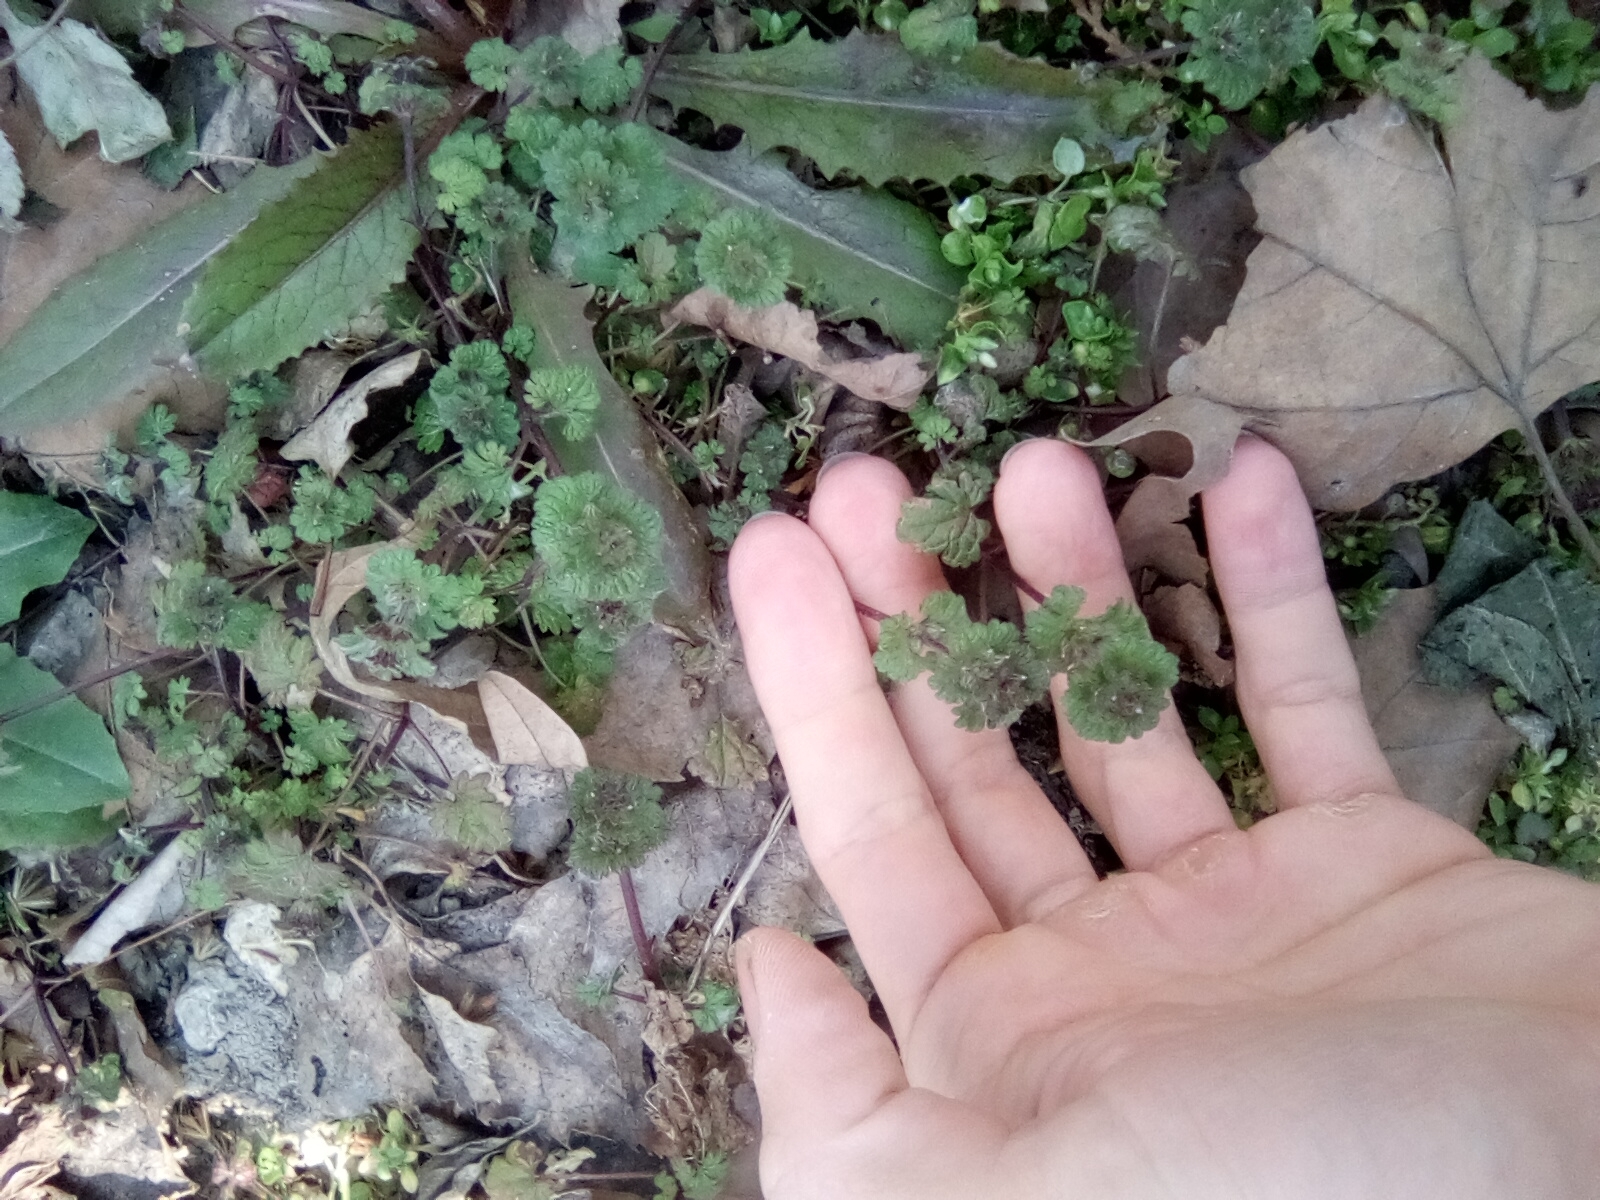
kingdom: Plantae
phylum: Tracheophyta
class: Magnoliopsida
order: Lamiales
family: Lamiaceae
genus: Lamium
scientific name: Lamium amplexicaule
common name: Henbit dead-nettle
